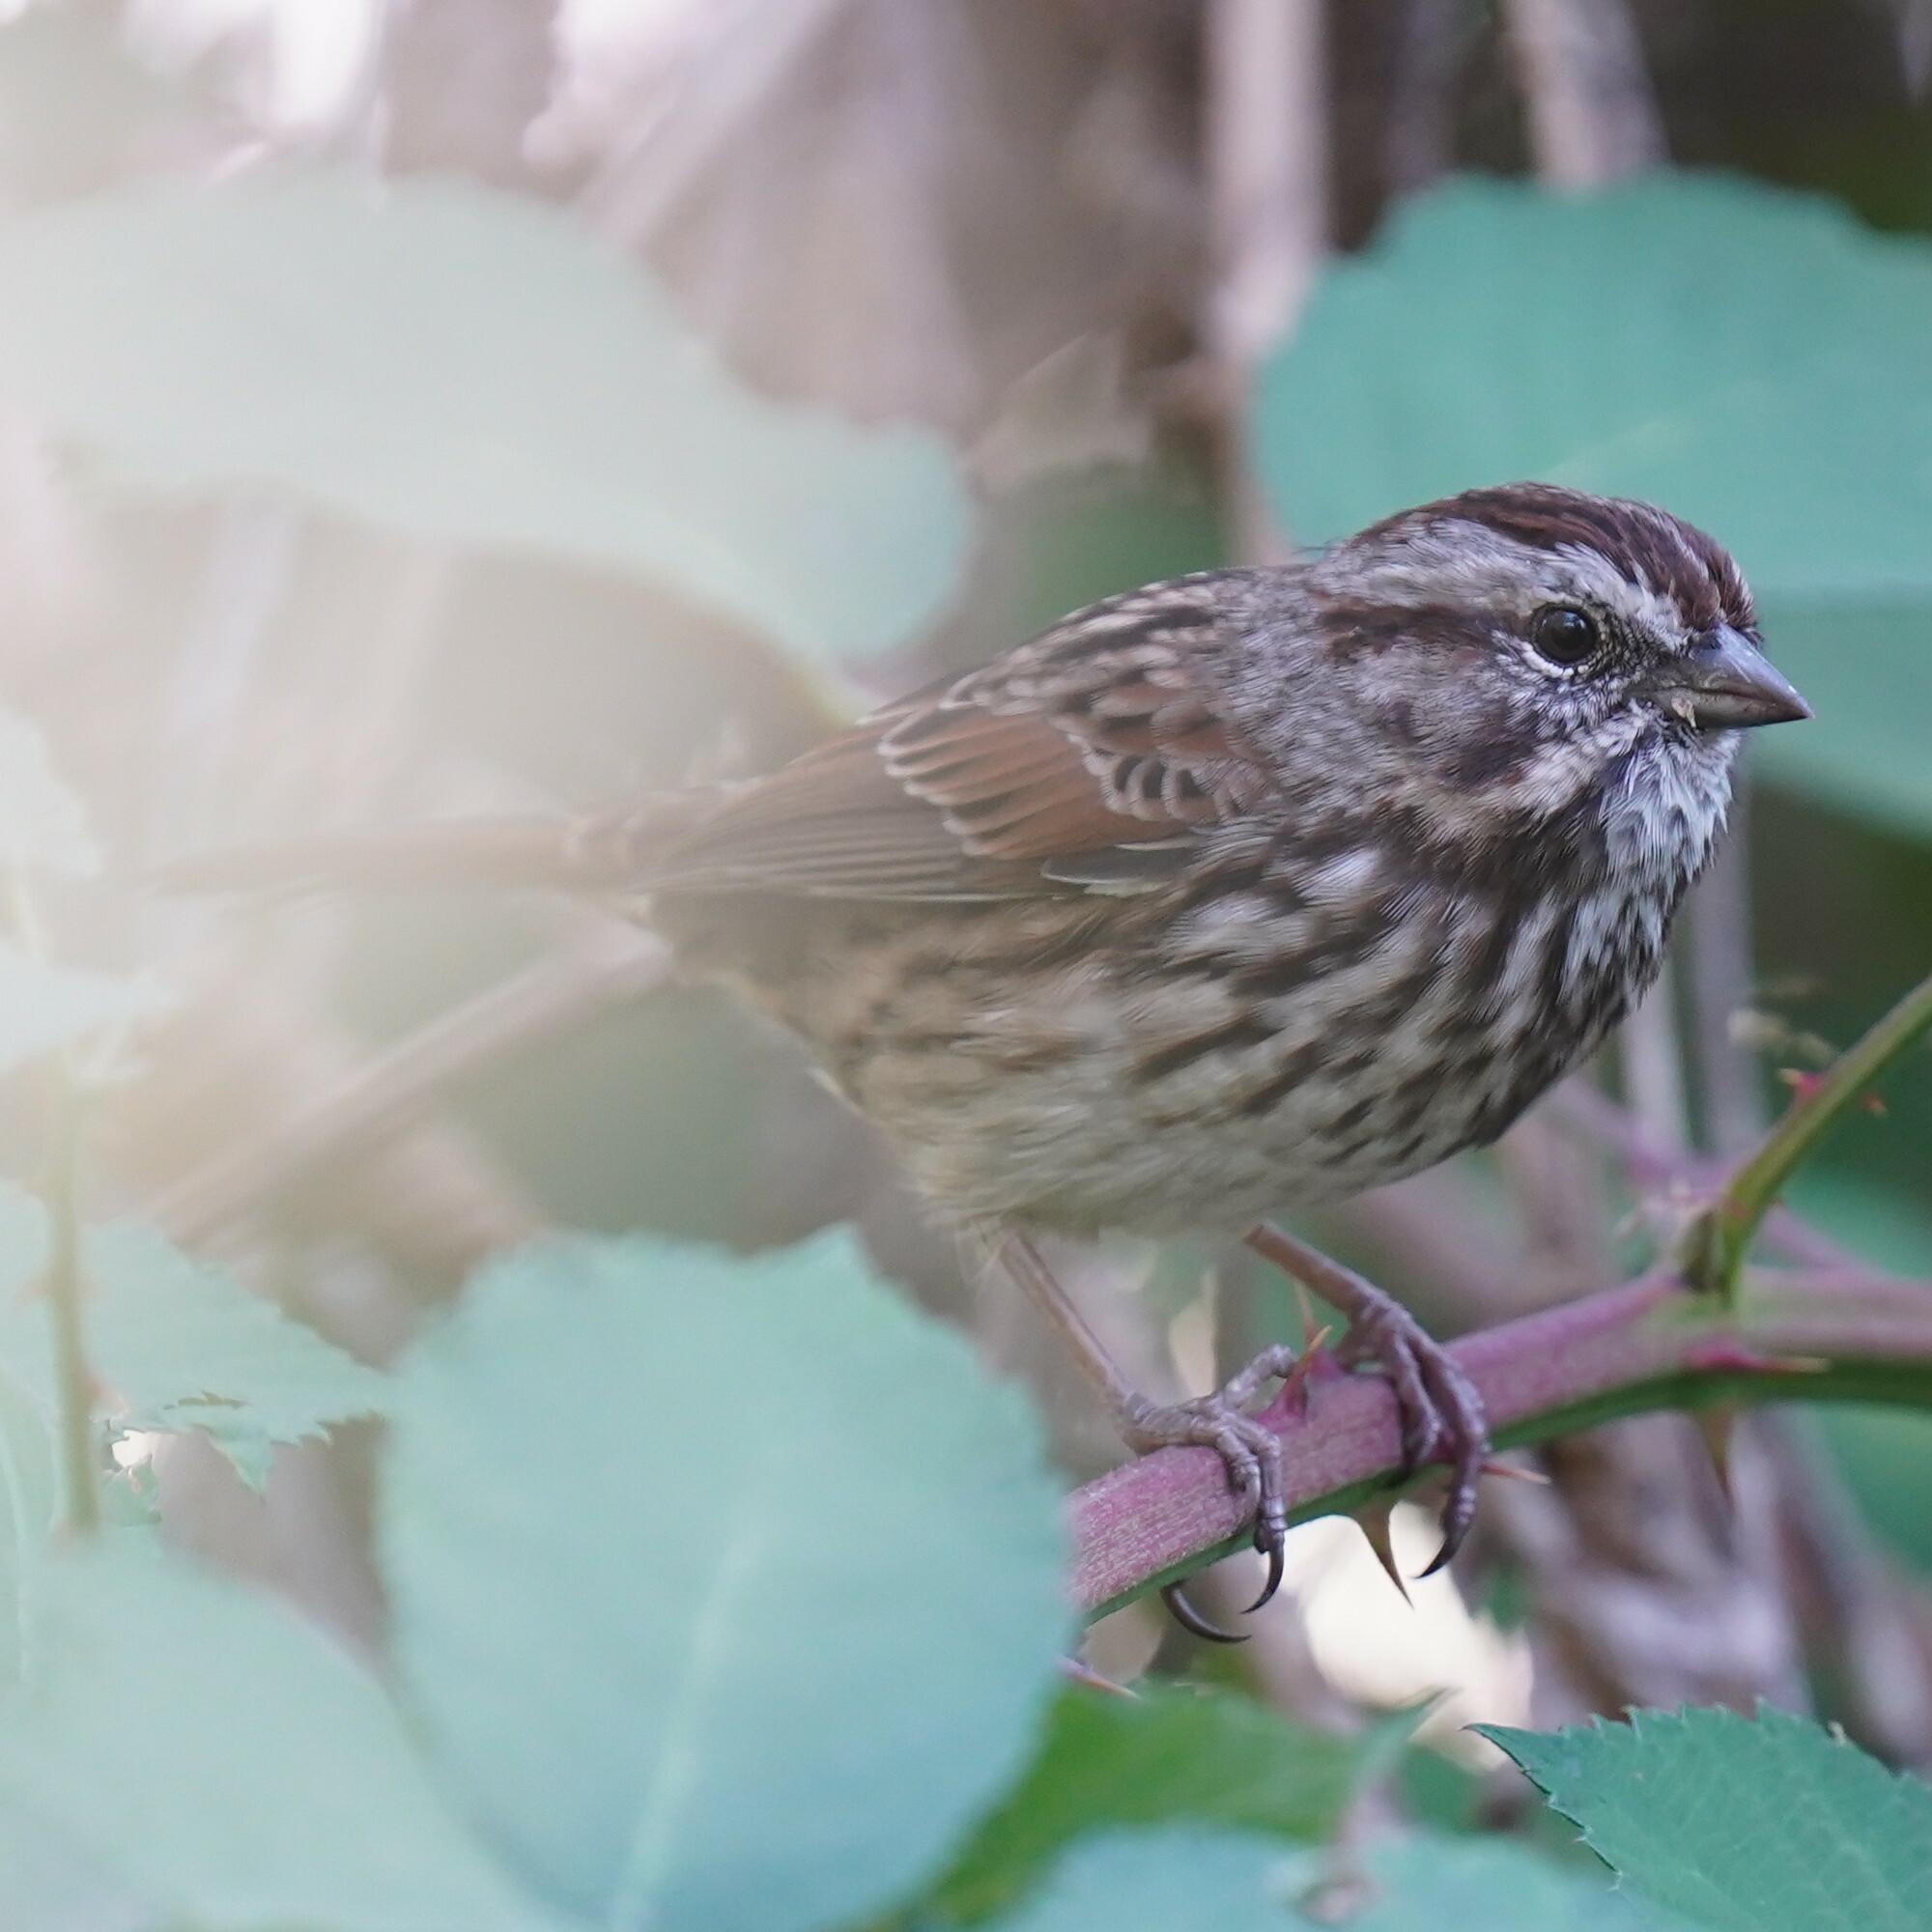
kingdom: Animalia
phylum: Chordata
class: Aves
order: Passeriformes
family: Passerellidae
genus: Melospiza
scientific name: Melospiza melodia
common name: Song sparrow
